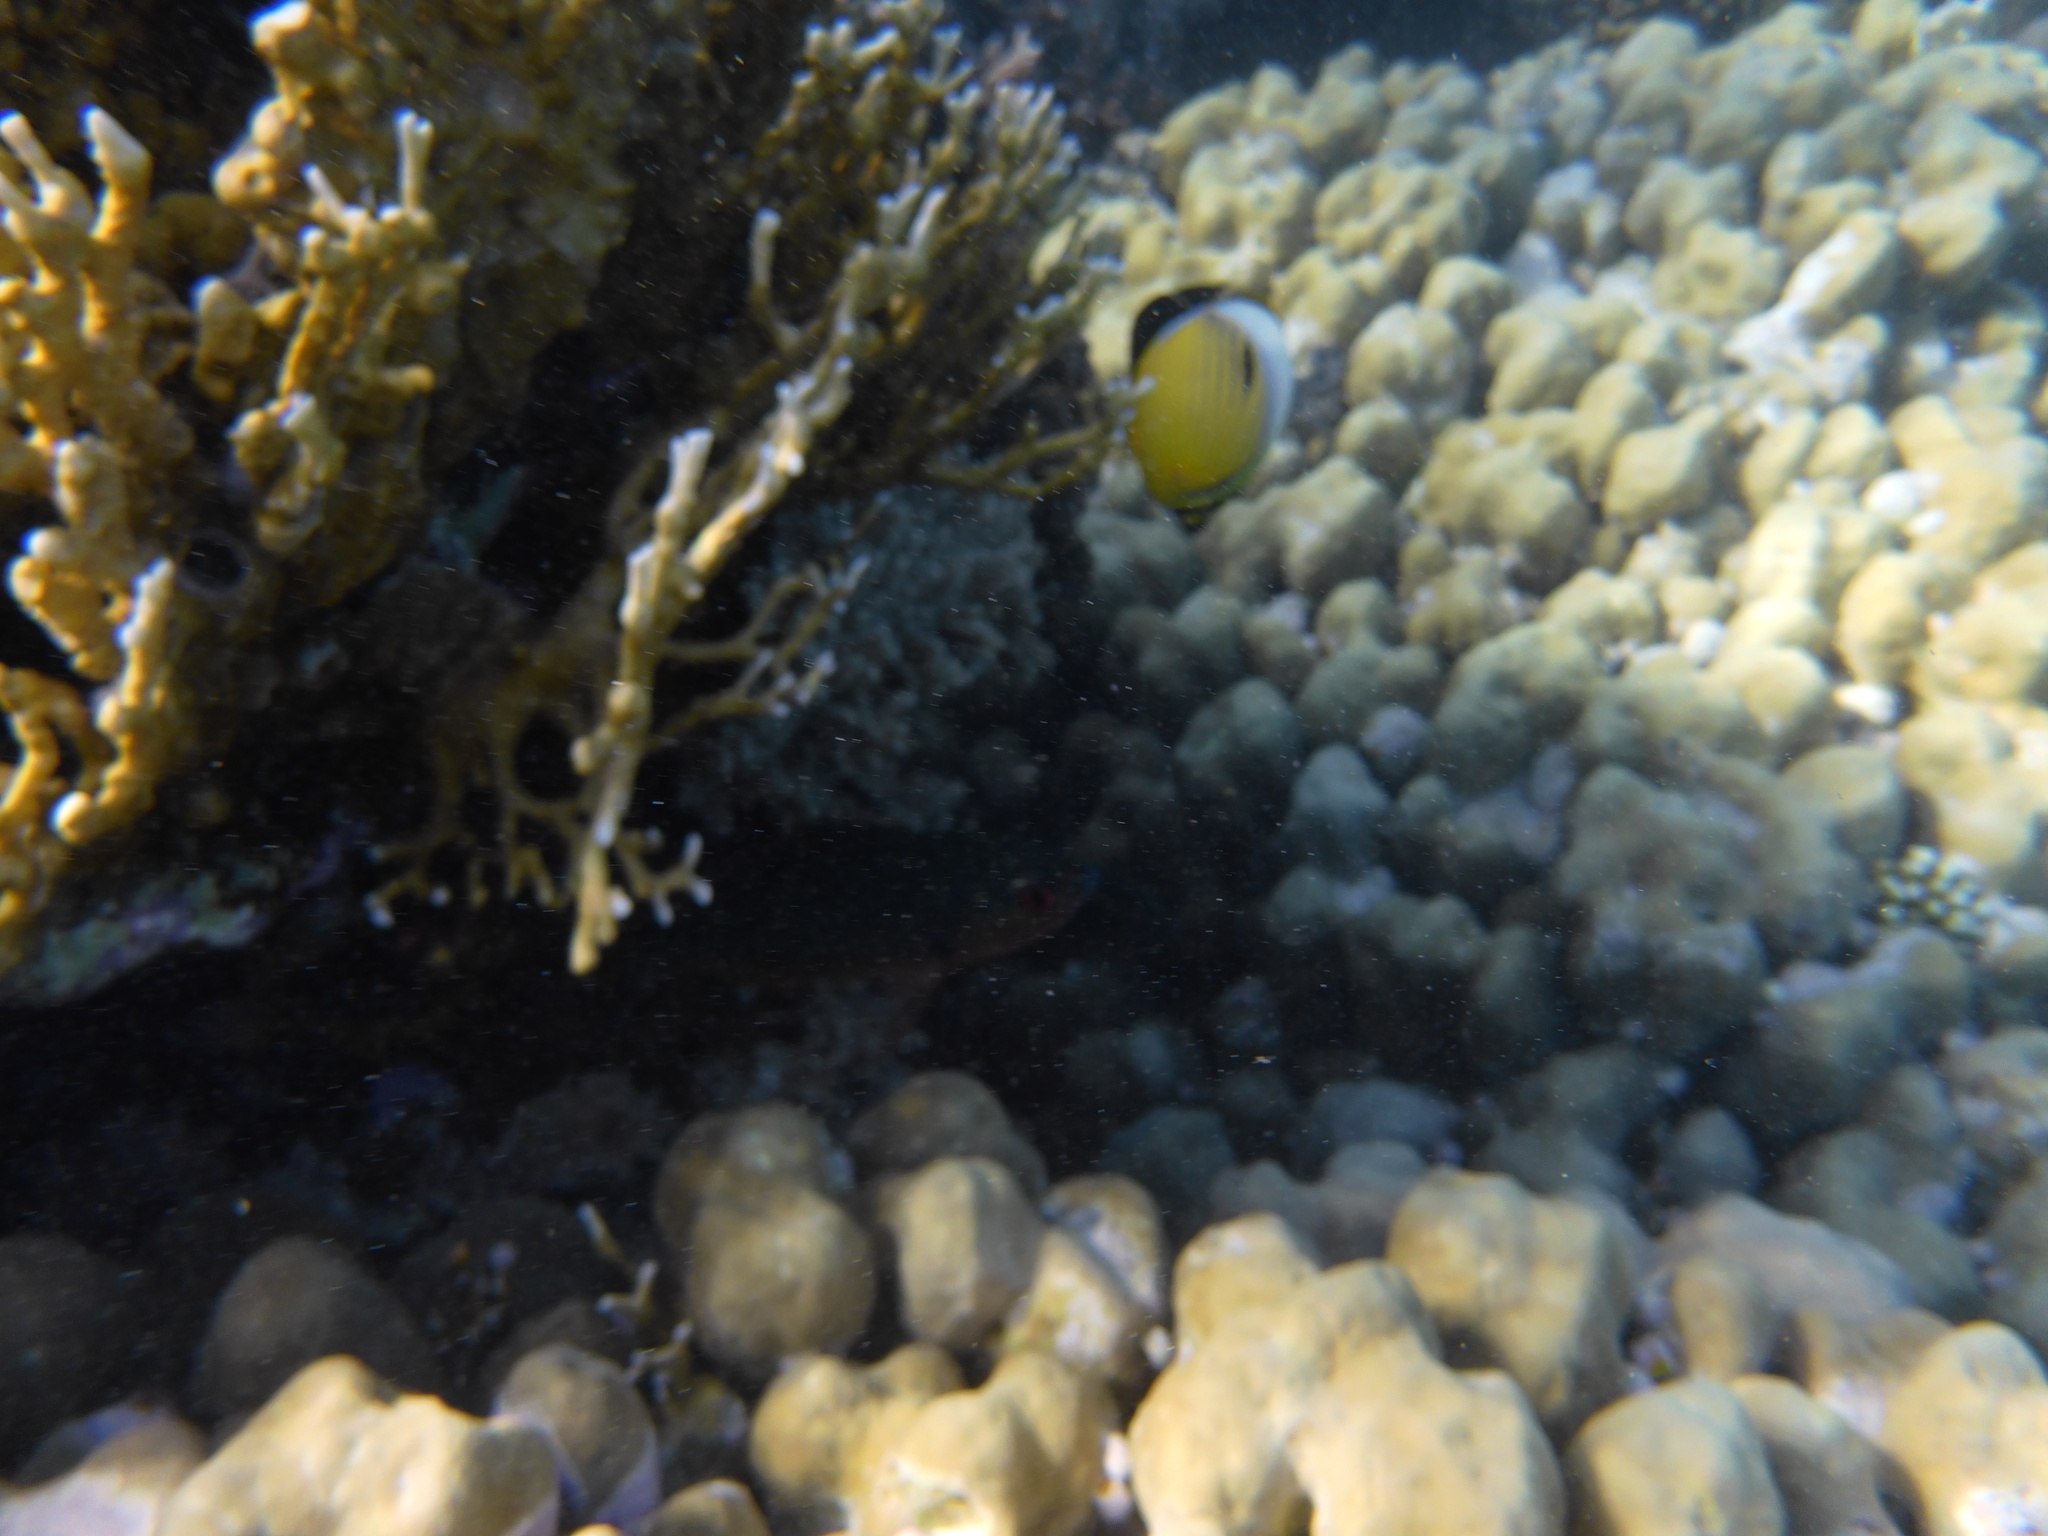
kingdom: Animalia
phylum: Chordata
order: Perciformes
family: Chaetodontidae
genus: Chaetodon
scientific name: Chaetodon austriacus
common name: Exquisite butterflyfish
